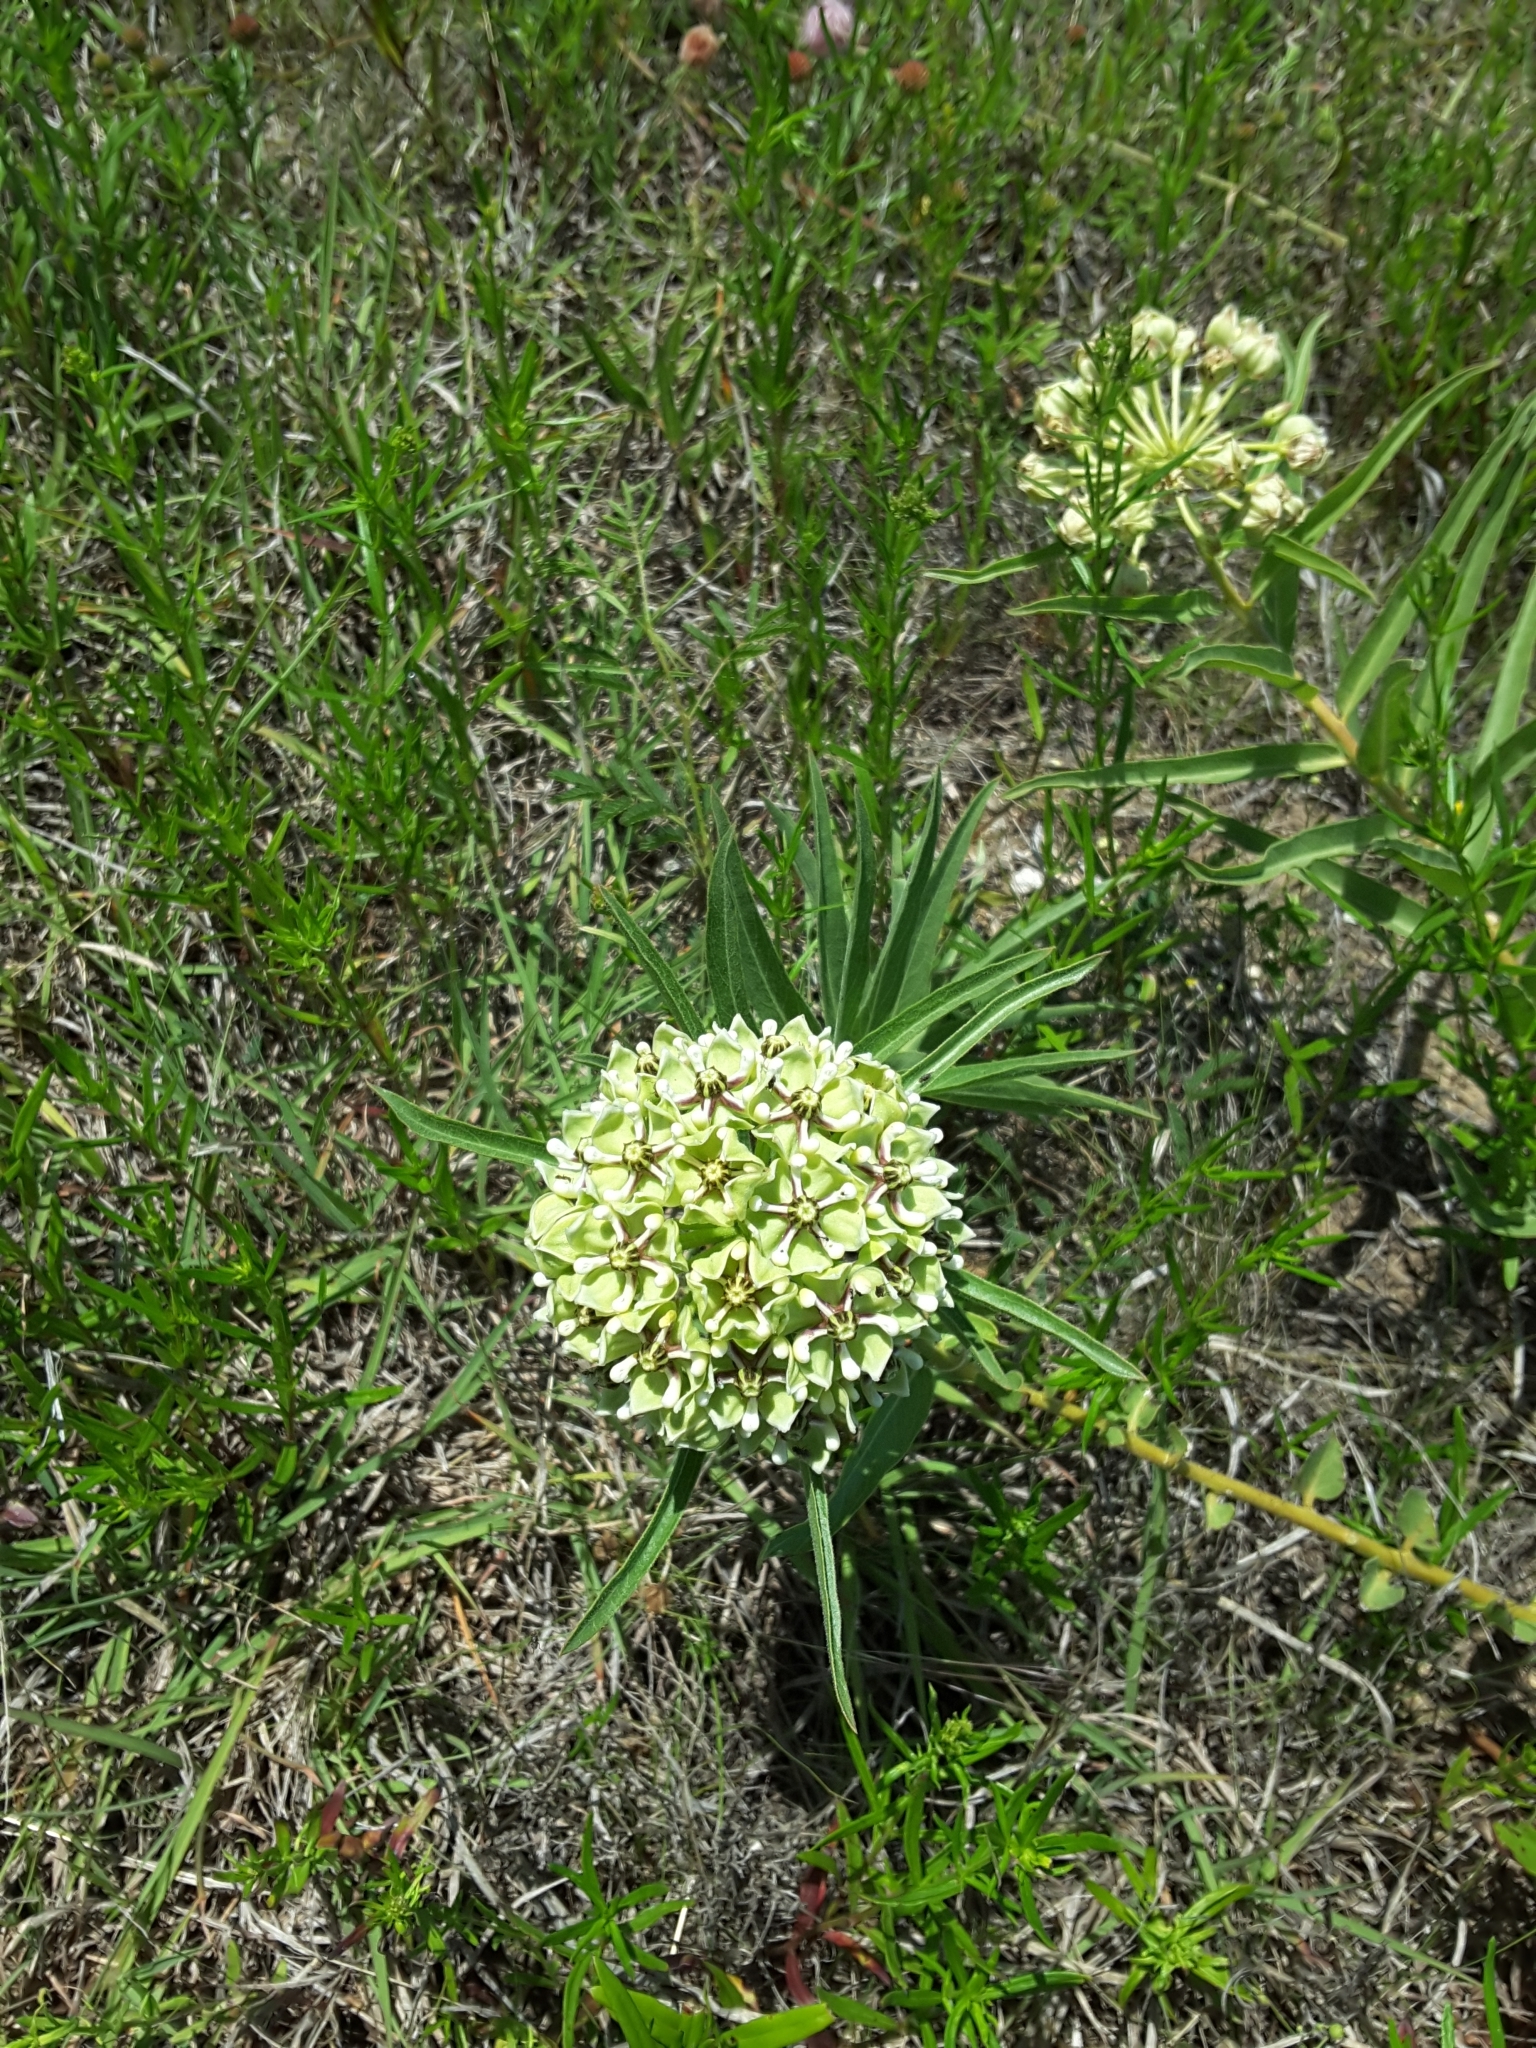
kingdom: Plantae
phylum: Tracheophyta
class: Magnoliopsida
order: Gentianales
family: Apocynaceae
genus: Asclepias
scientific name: Asclepias asperula
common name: Antelope horns
